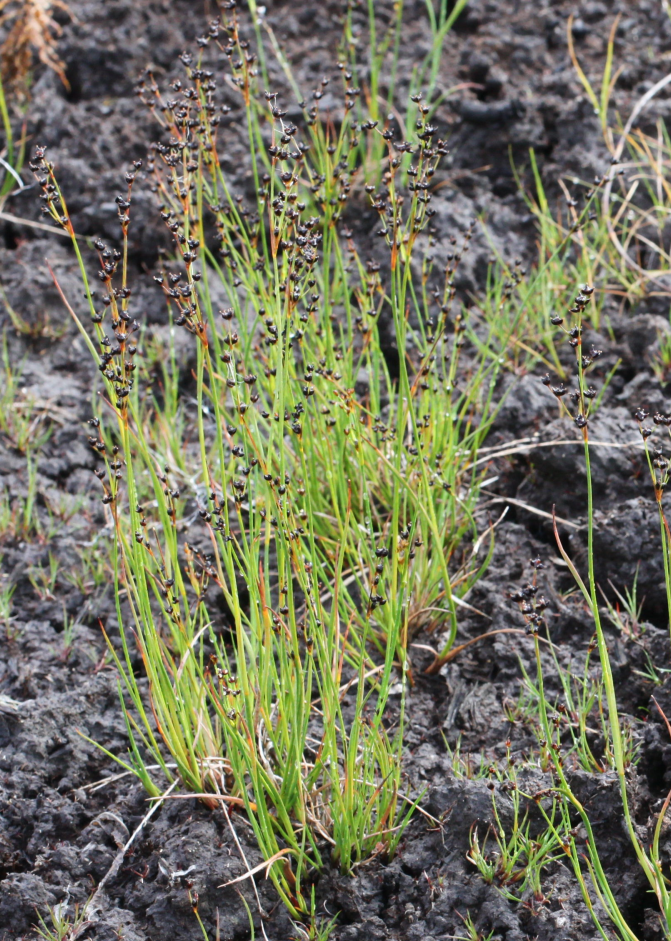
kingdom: Plantae
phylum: Tracheophyta
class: Liliopsida
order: Poales
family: Juncaceae
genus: Juncus
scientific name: Juncus alpinoarticulatus
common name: Alpine rush
